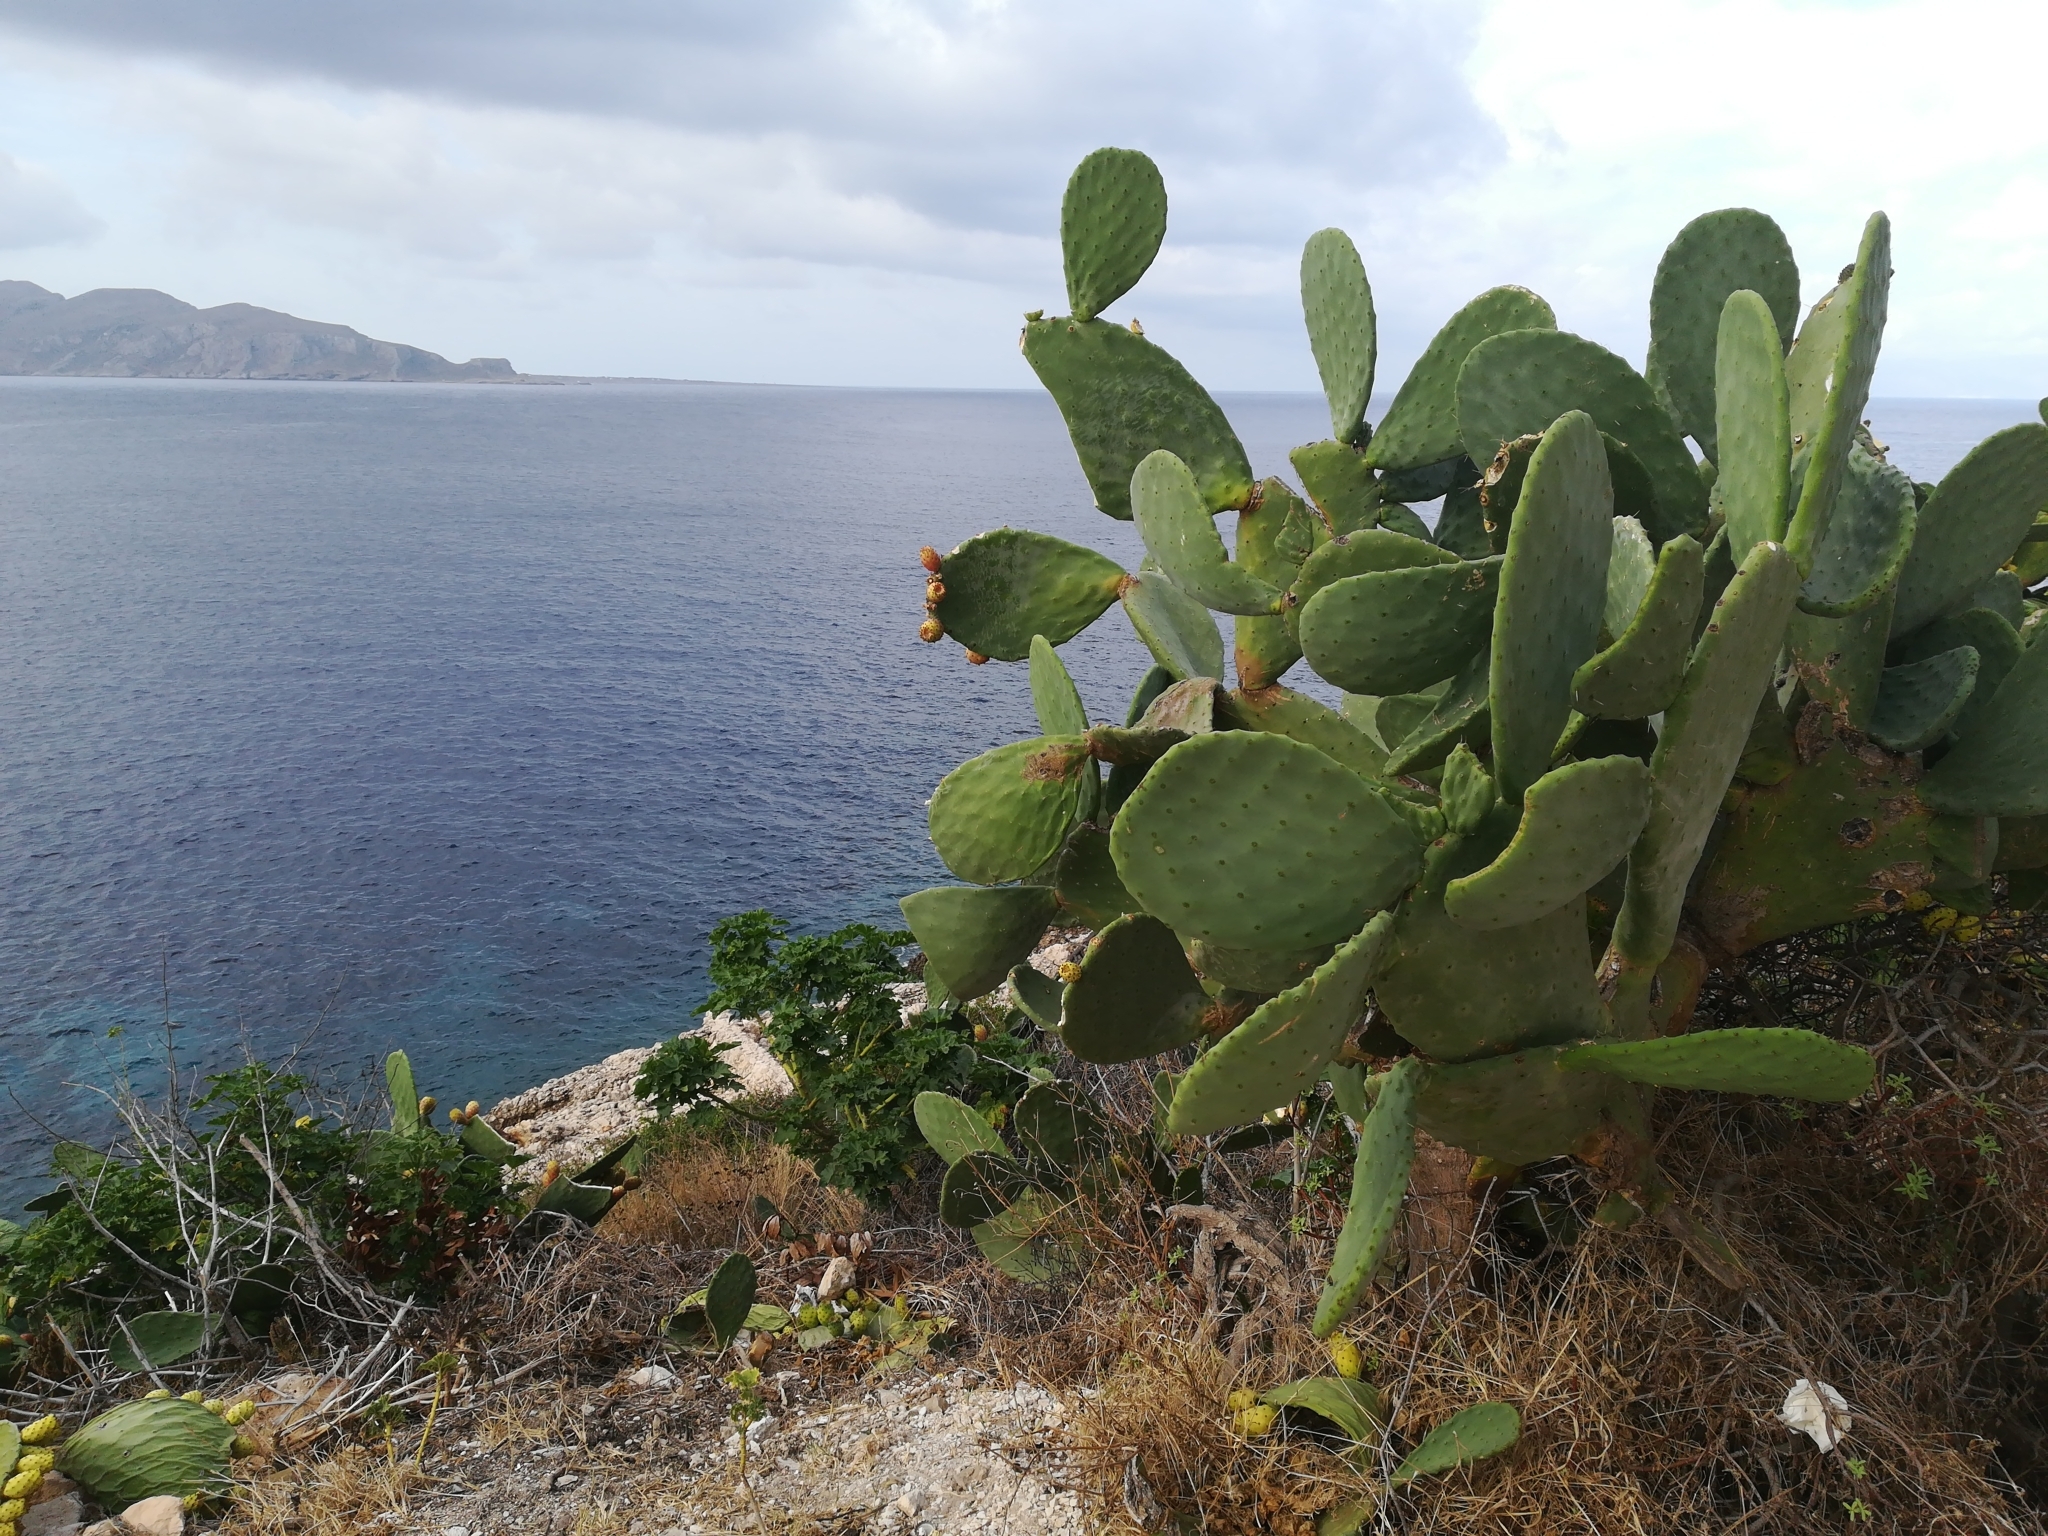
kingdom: Plantae
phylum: Tracheophyta
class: Magnoliopsida
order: Caryophyllales
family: Cactaceae
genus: Opuntia
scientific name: Opuntia ficus-indica
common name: Barbary fig
